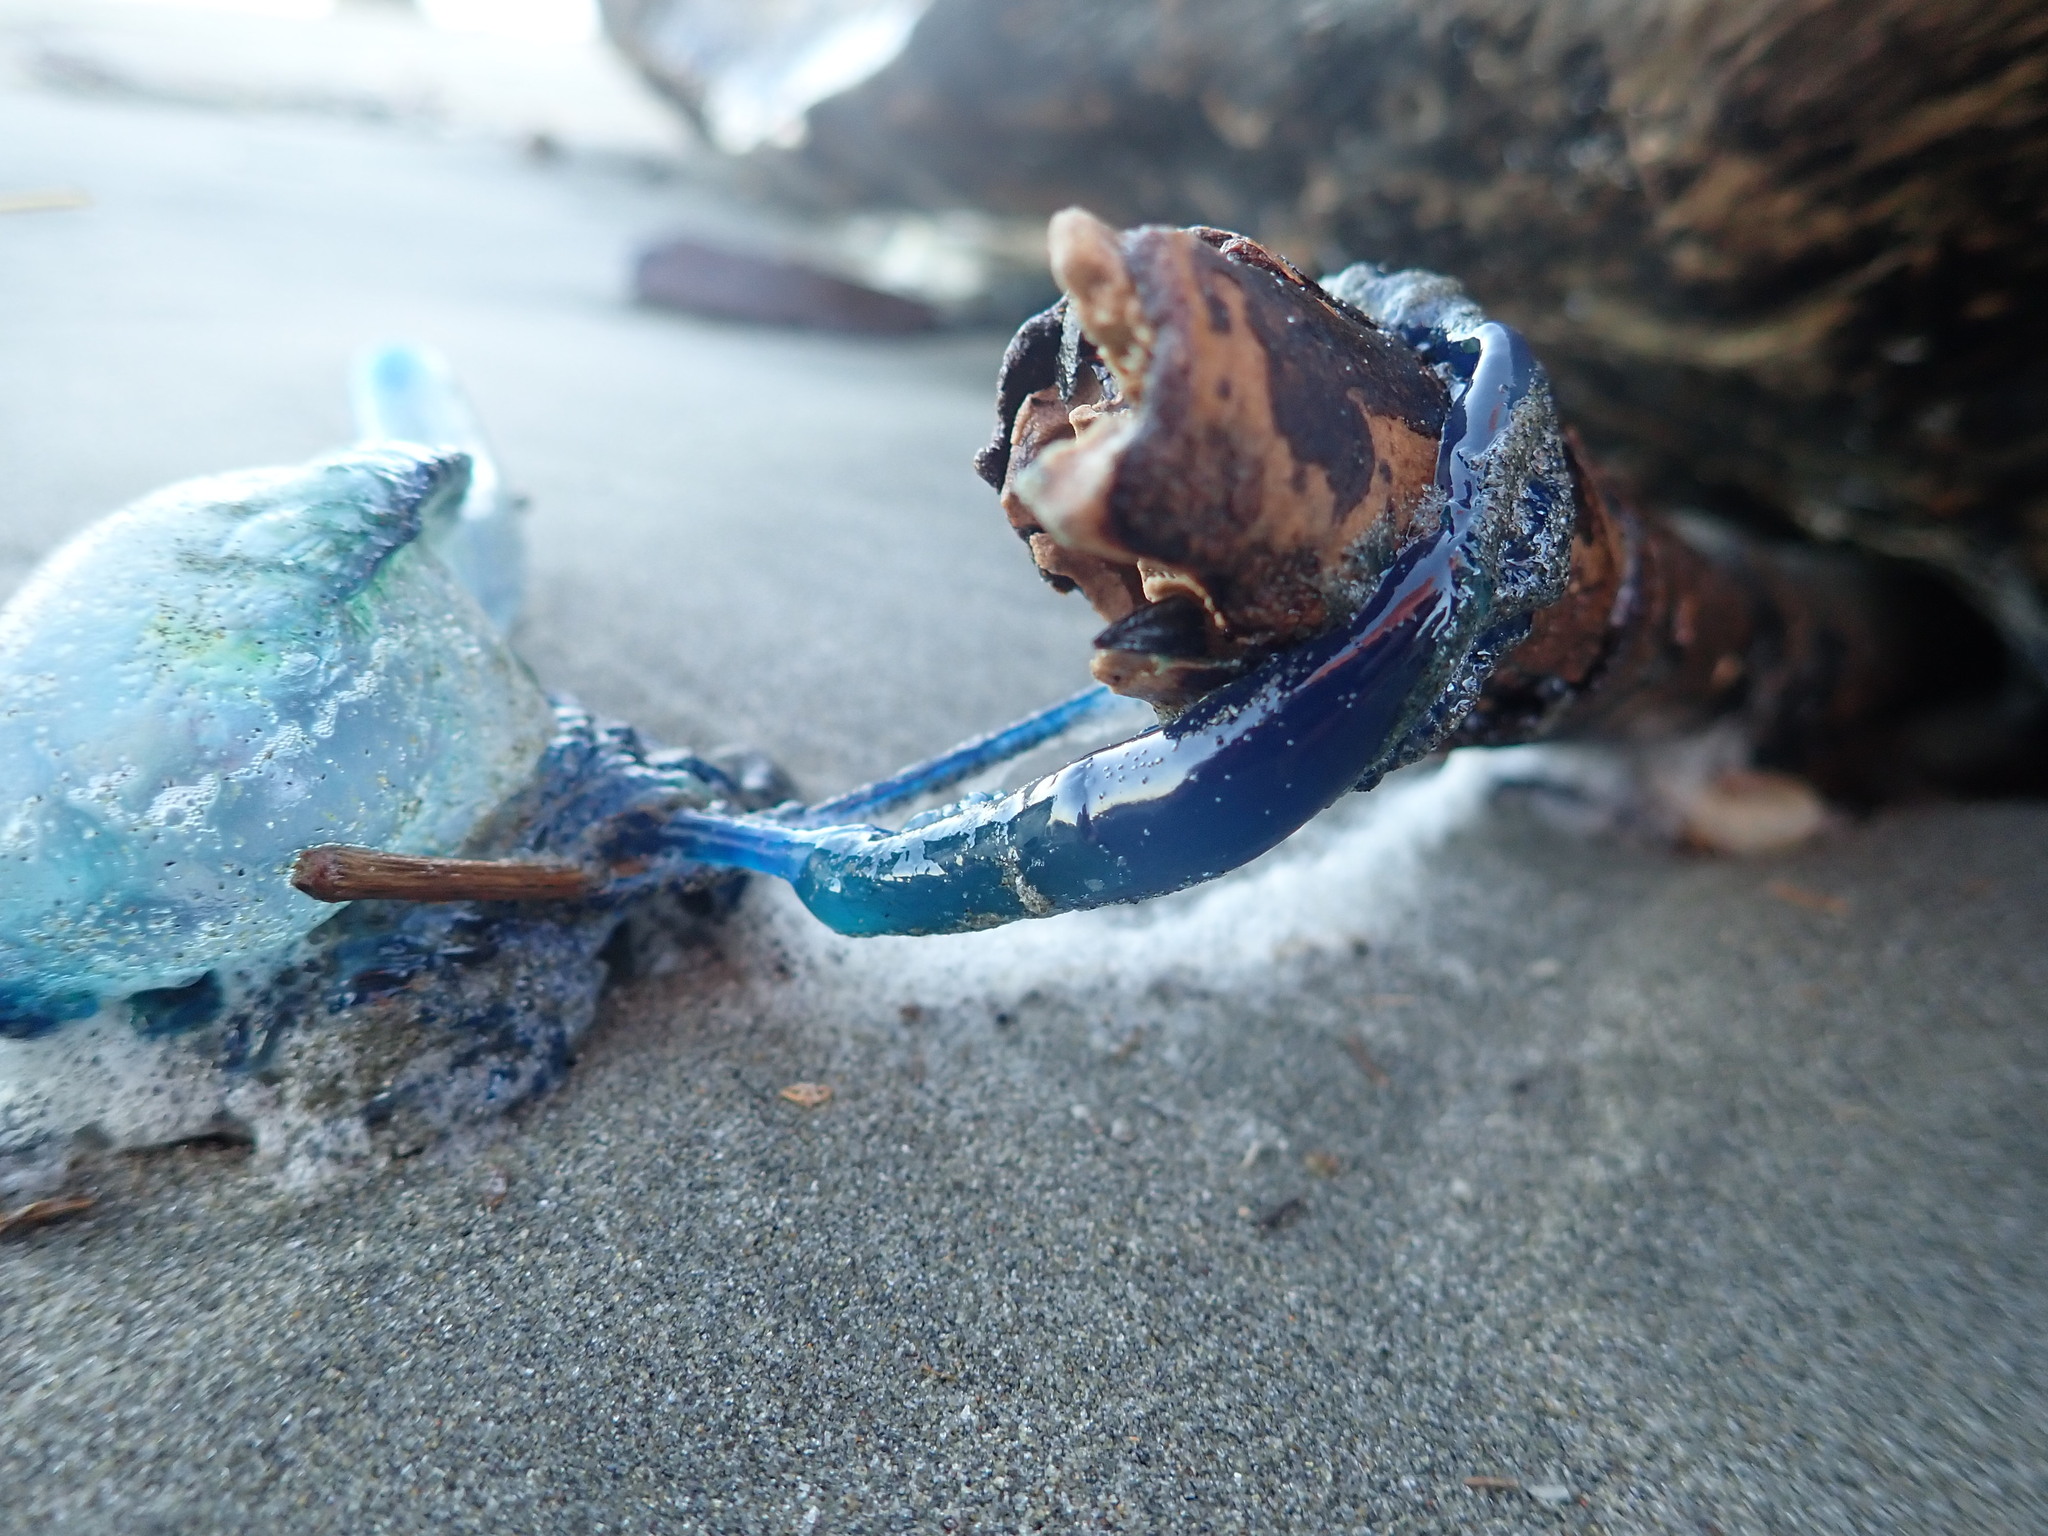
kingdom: Animalia
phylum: Cnidaria
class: Hydrozoa
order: Siphonophorae
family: Physaliidae
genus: Physalia
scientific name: Physalia physalis
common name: Portuguese man-of-war
